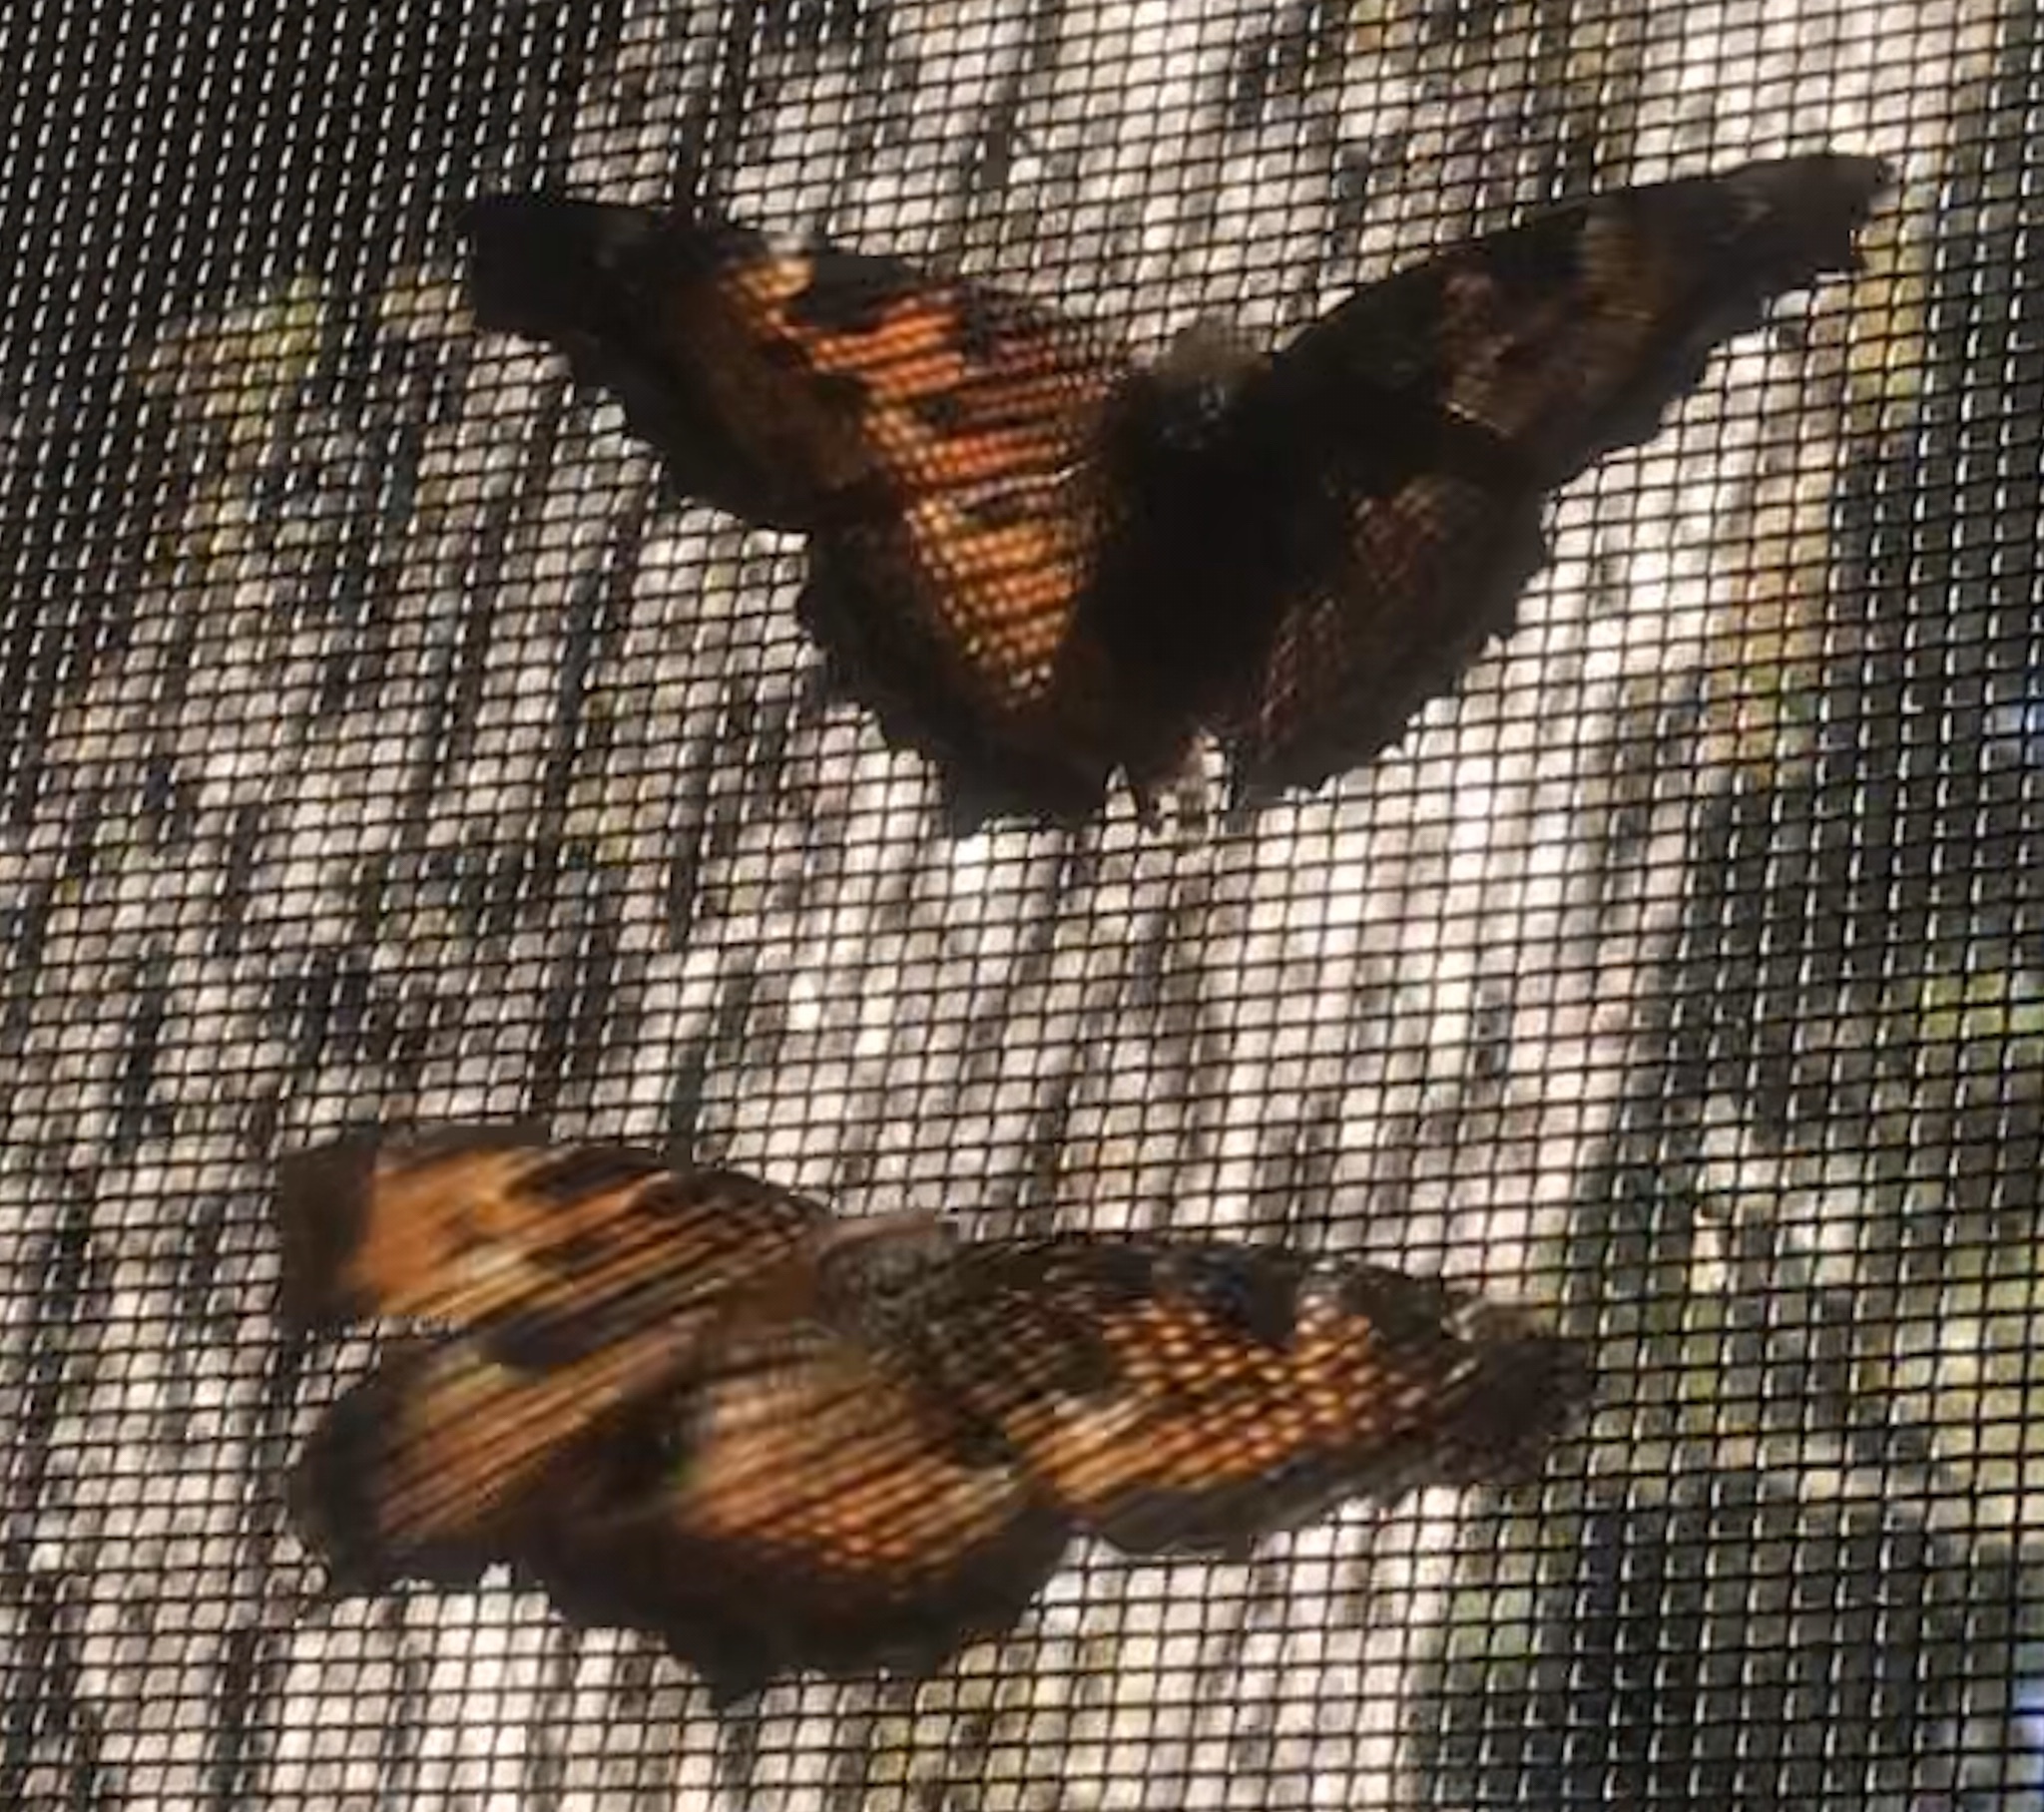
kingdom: Animalia
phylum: Arthropoda
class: Insecta
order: Lepidoptera
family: Nymphalidae
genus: Nymphalis
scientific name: Nymphalis californica
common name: California tortoiseshell
